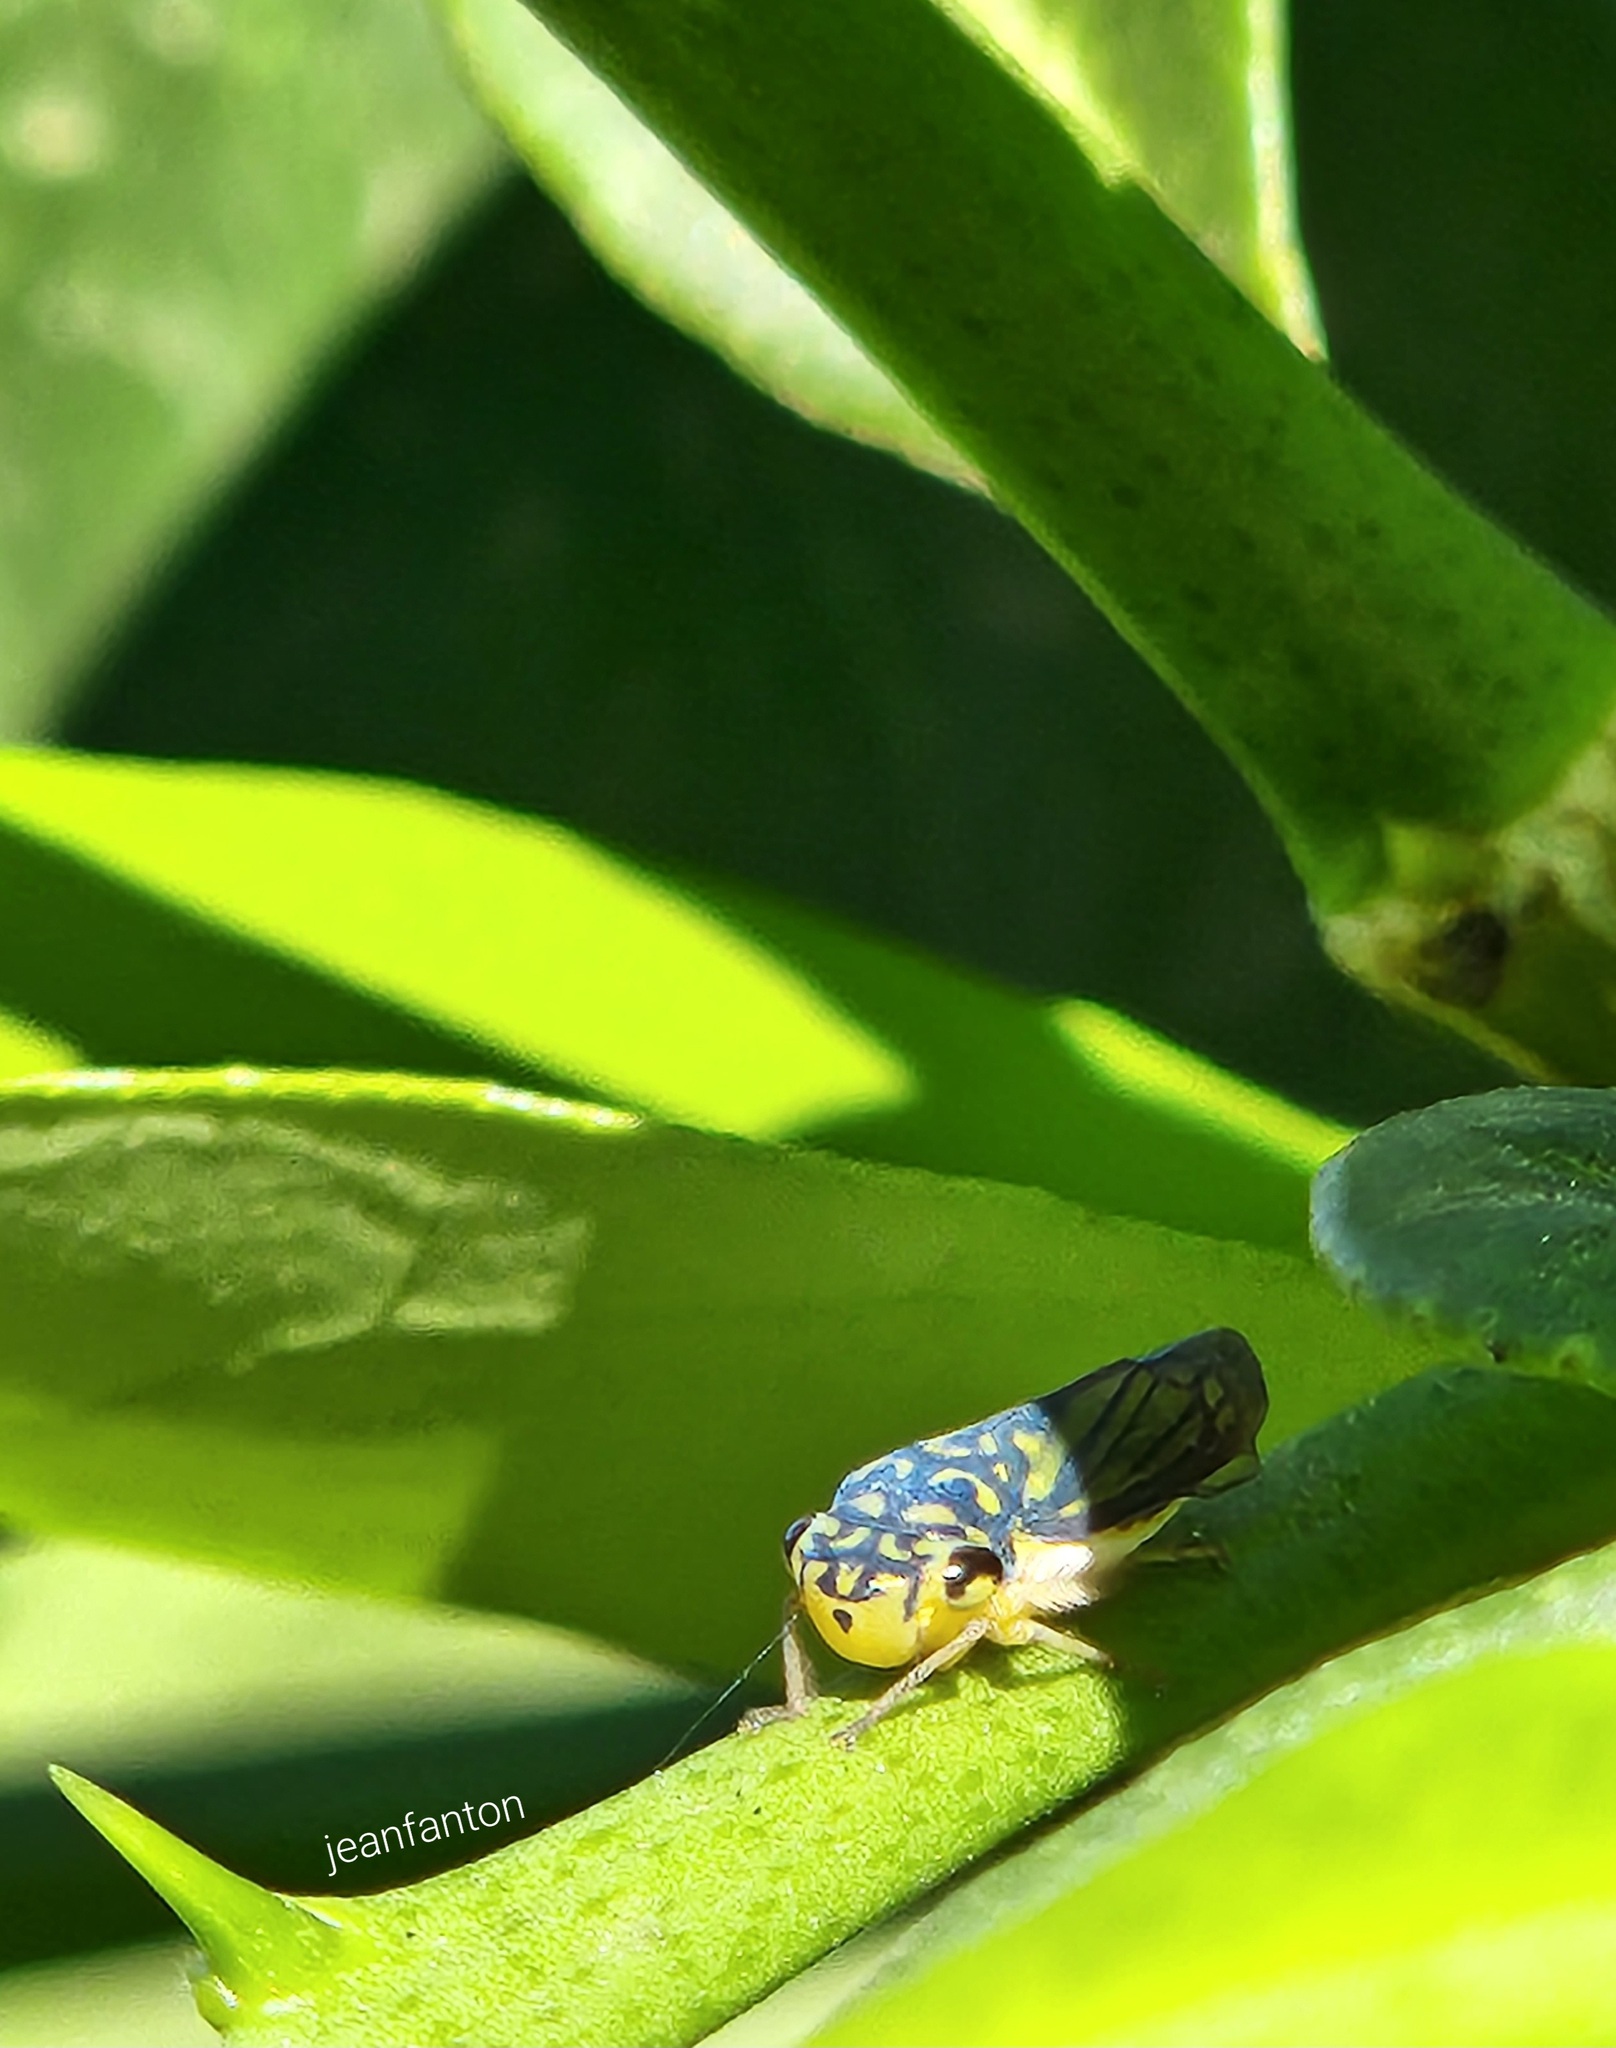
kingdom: Animalia
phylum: Arthropoda
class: Insecta
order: Hemiptera
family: Cicadellidae
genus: Dilobopterus
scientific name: Dilobopterus costalimai
